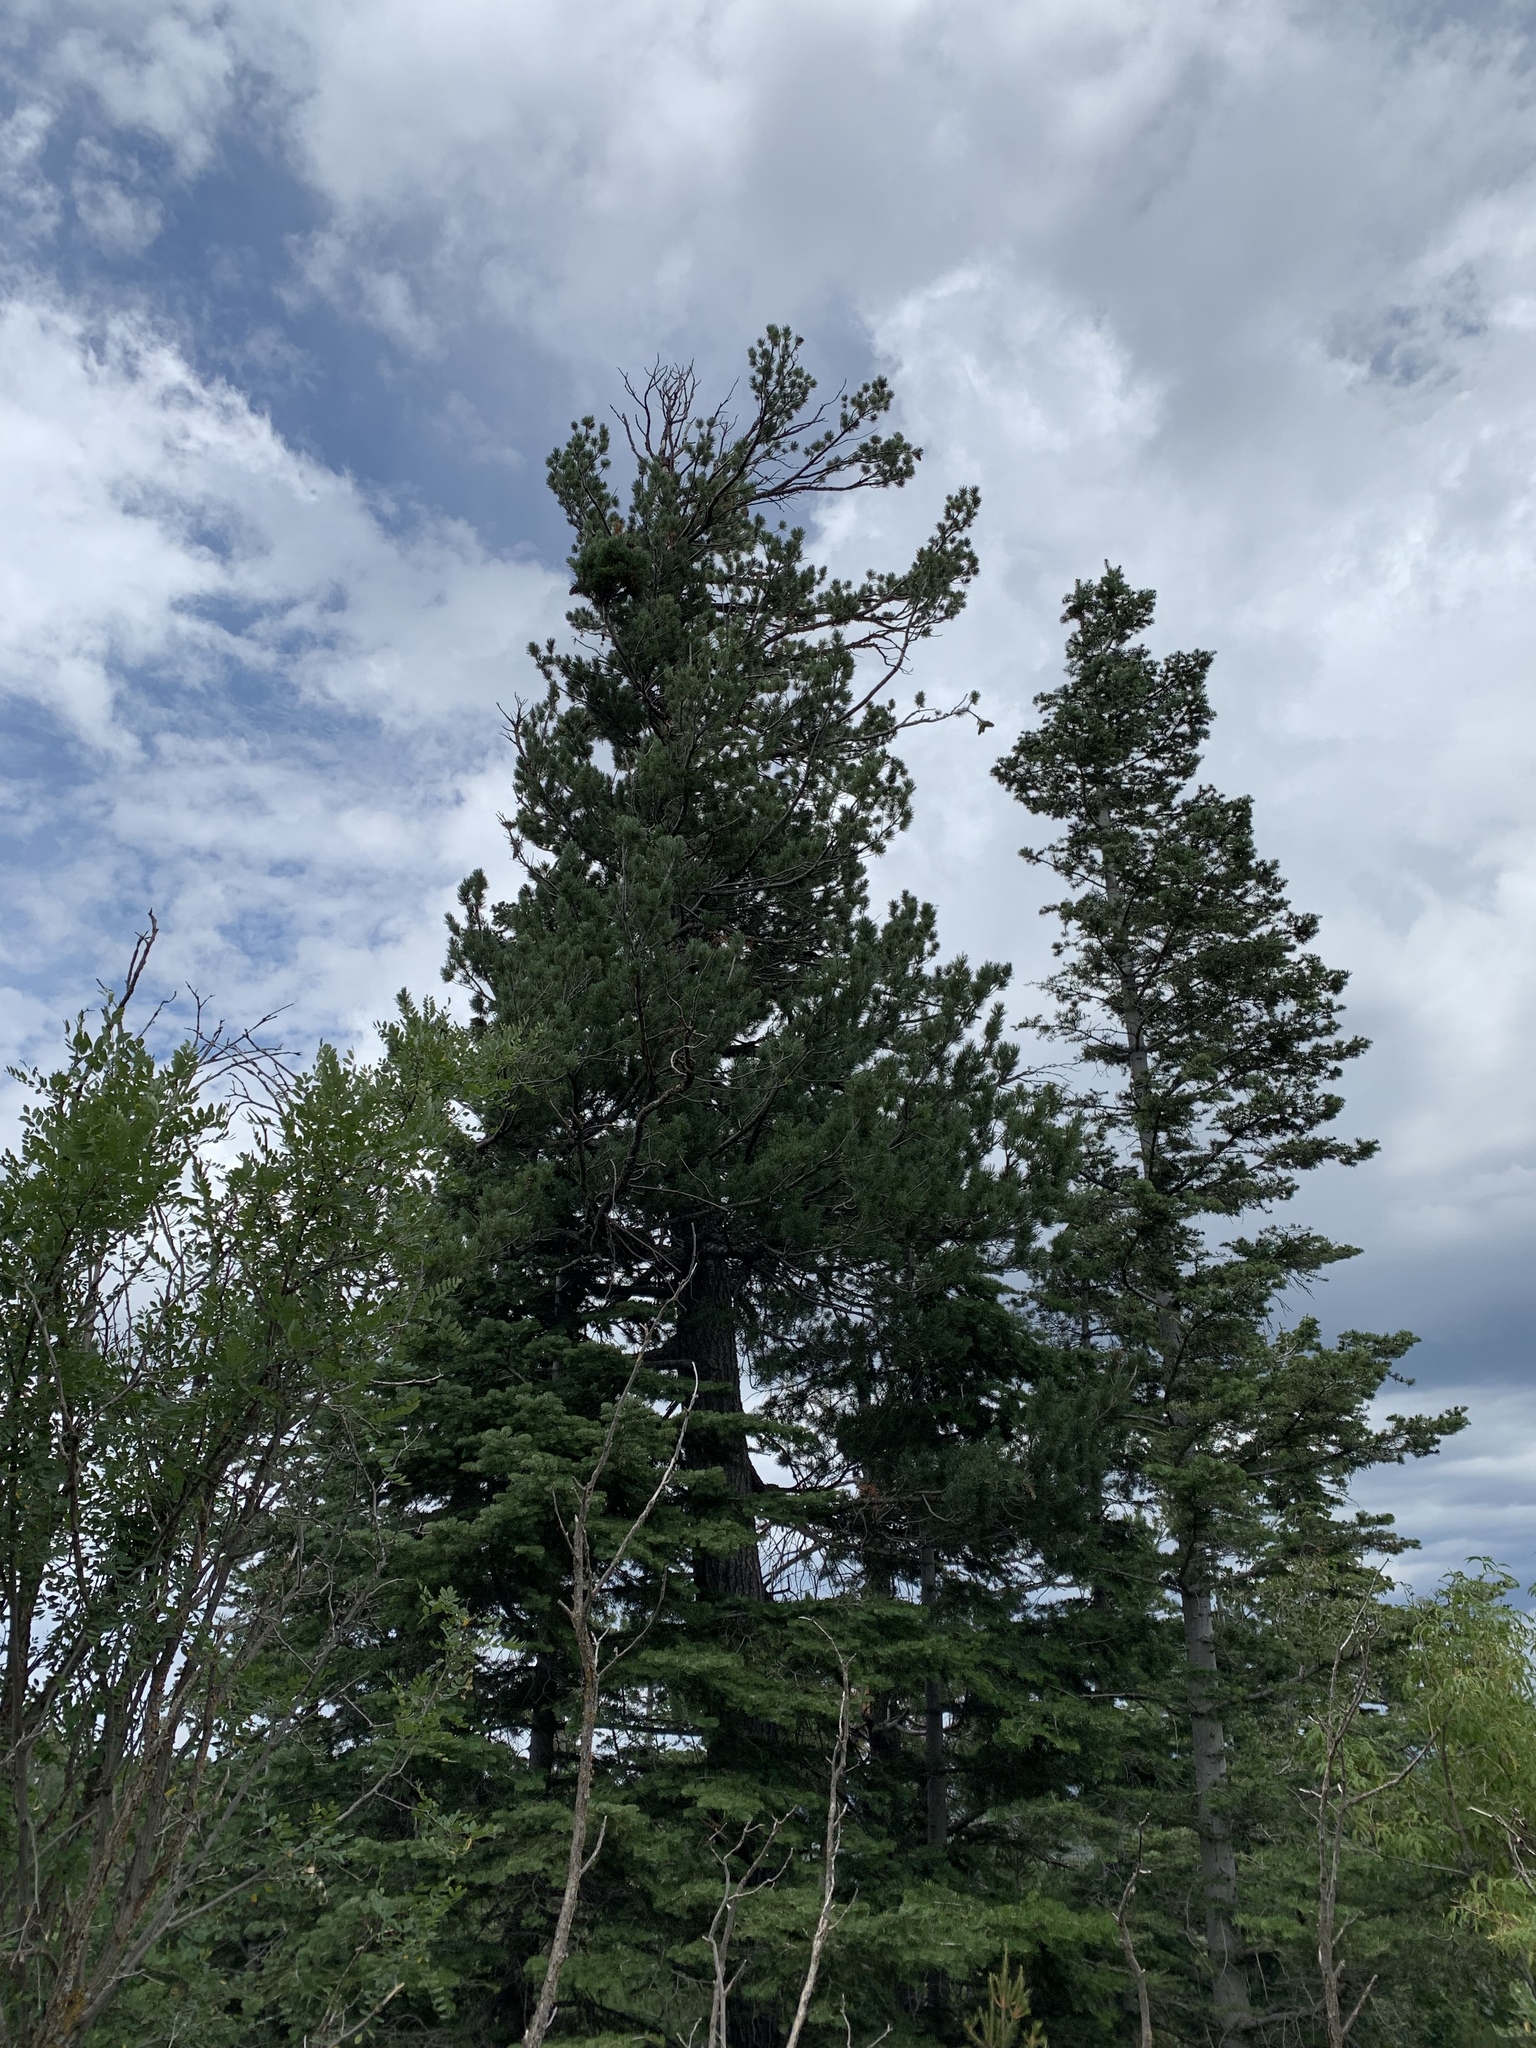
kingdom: Plantae
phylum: Tracheophyta
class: Pinopsida
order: Pinales
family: Pinaceae
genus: Pinus
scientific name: Pinus strobiformis
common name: Southwestern white pine
